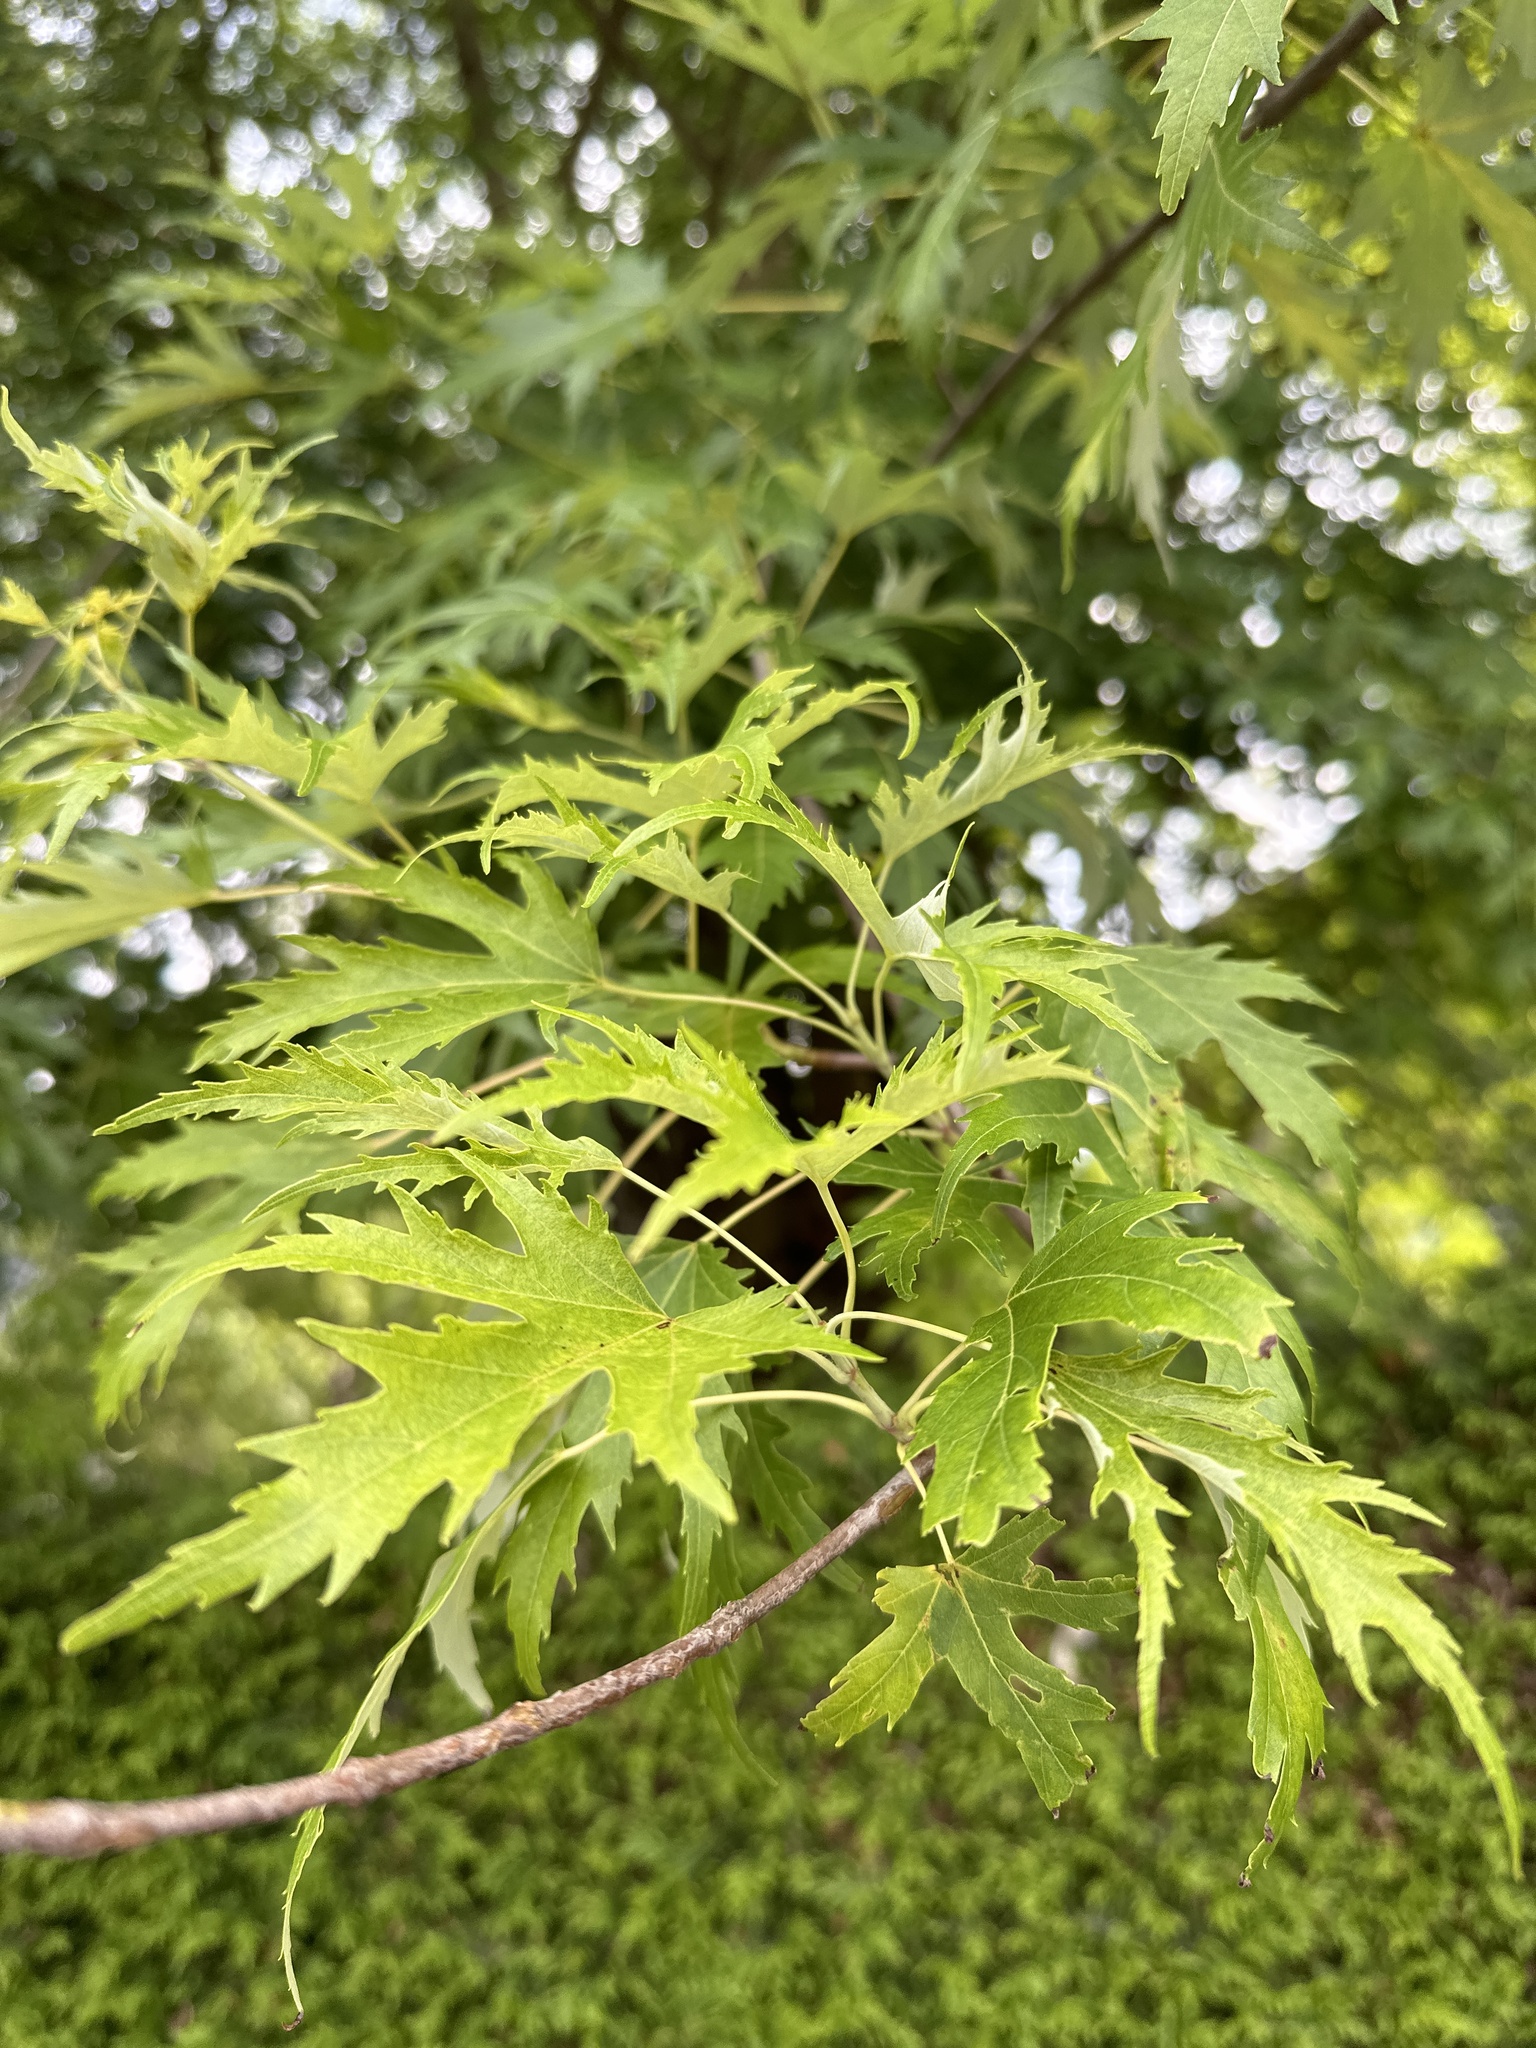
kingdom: Plantae
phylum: Tracheophyta
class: Magnoliopsida
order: Sapindales
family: Sapindaceae
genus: Acer
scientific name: Acer saccharinum
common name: Silver maple
